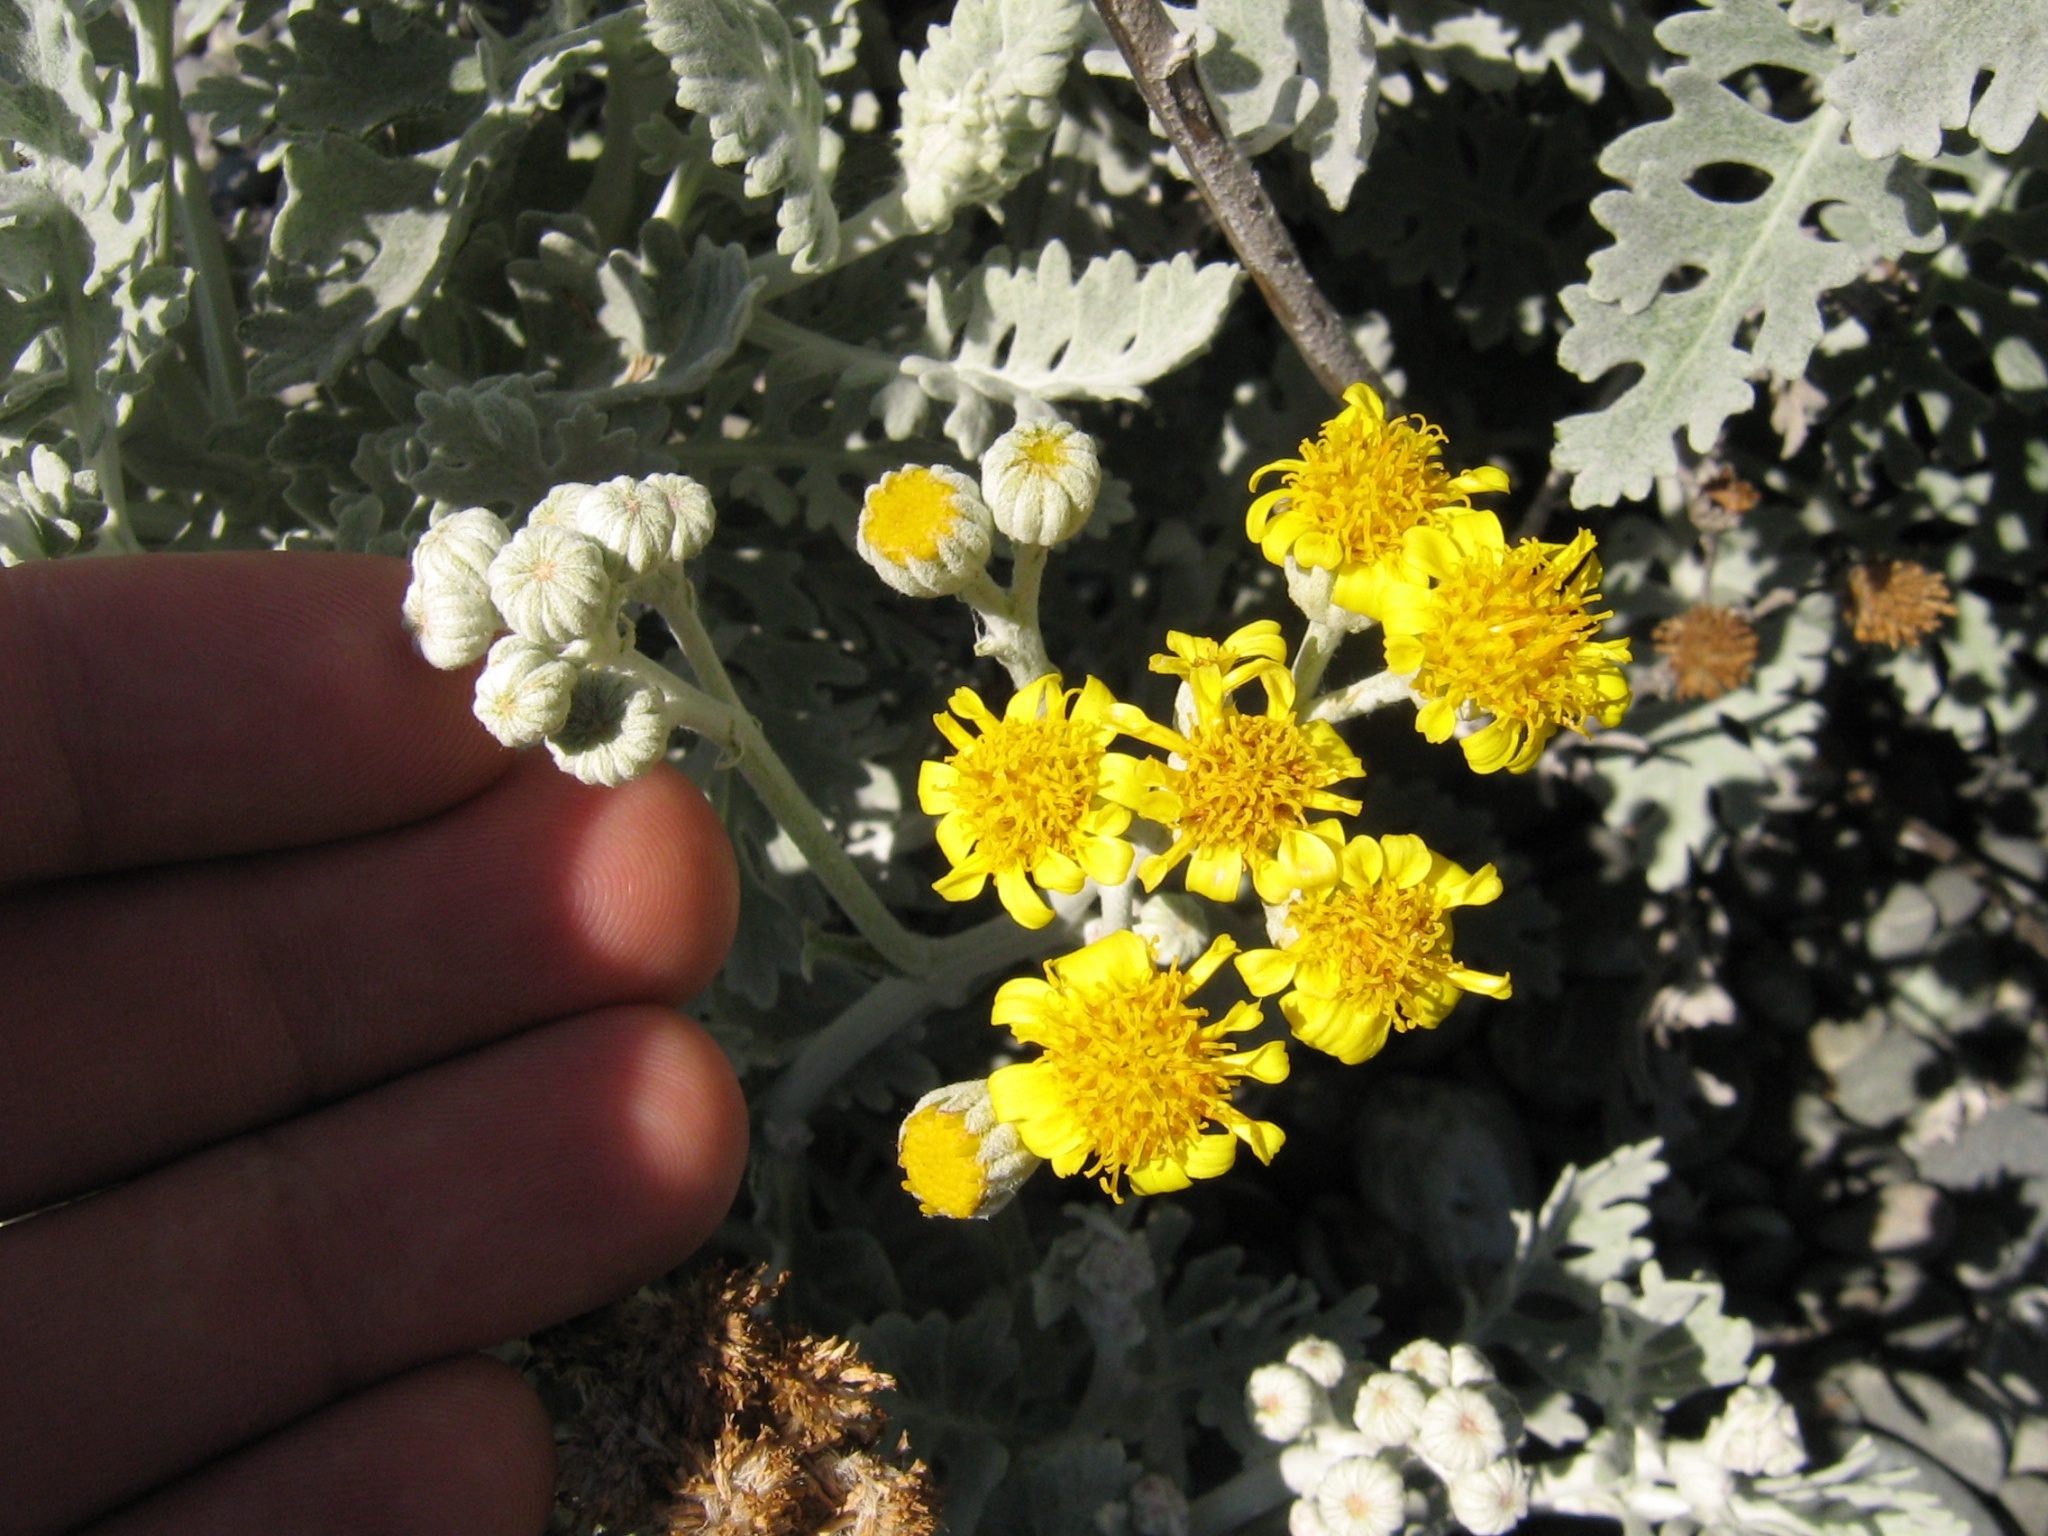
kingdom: Plantae
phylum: Tracheophyta
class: Magnoliopsida
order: Asterales
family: Asteraceae
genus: Jacobaea
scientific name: Jacobaea maritima
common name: Silver ragwort
